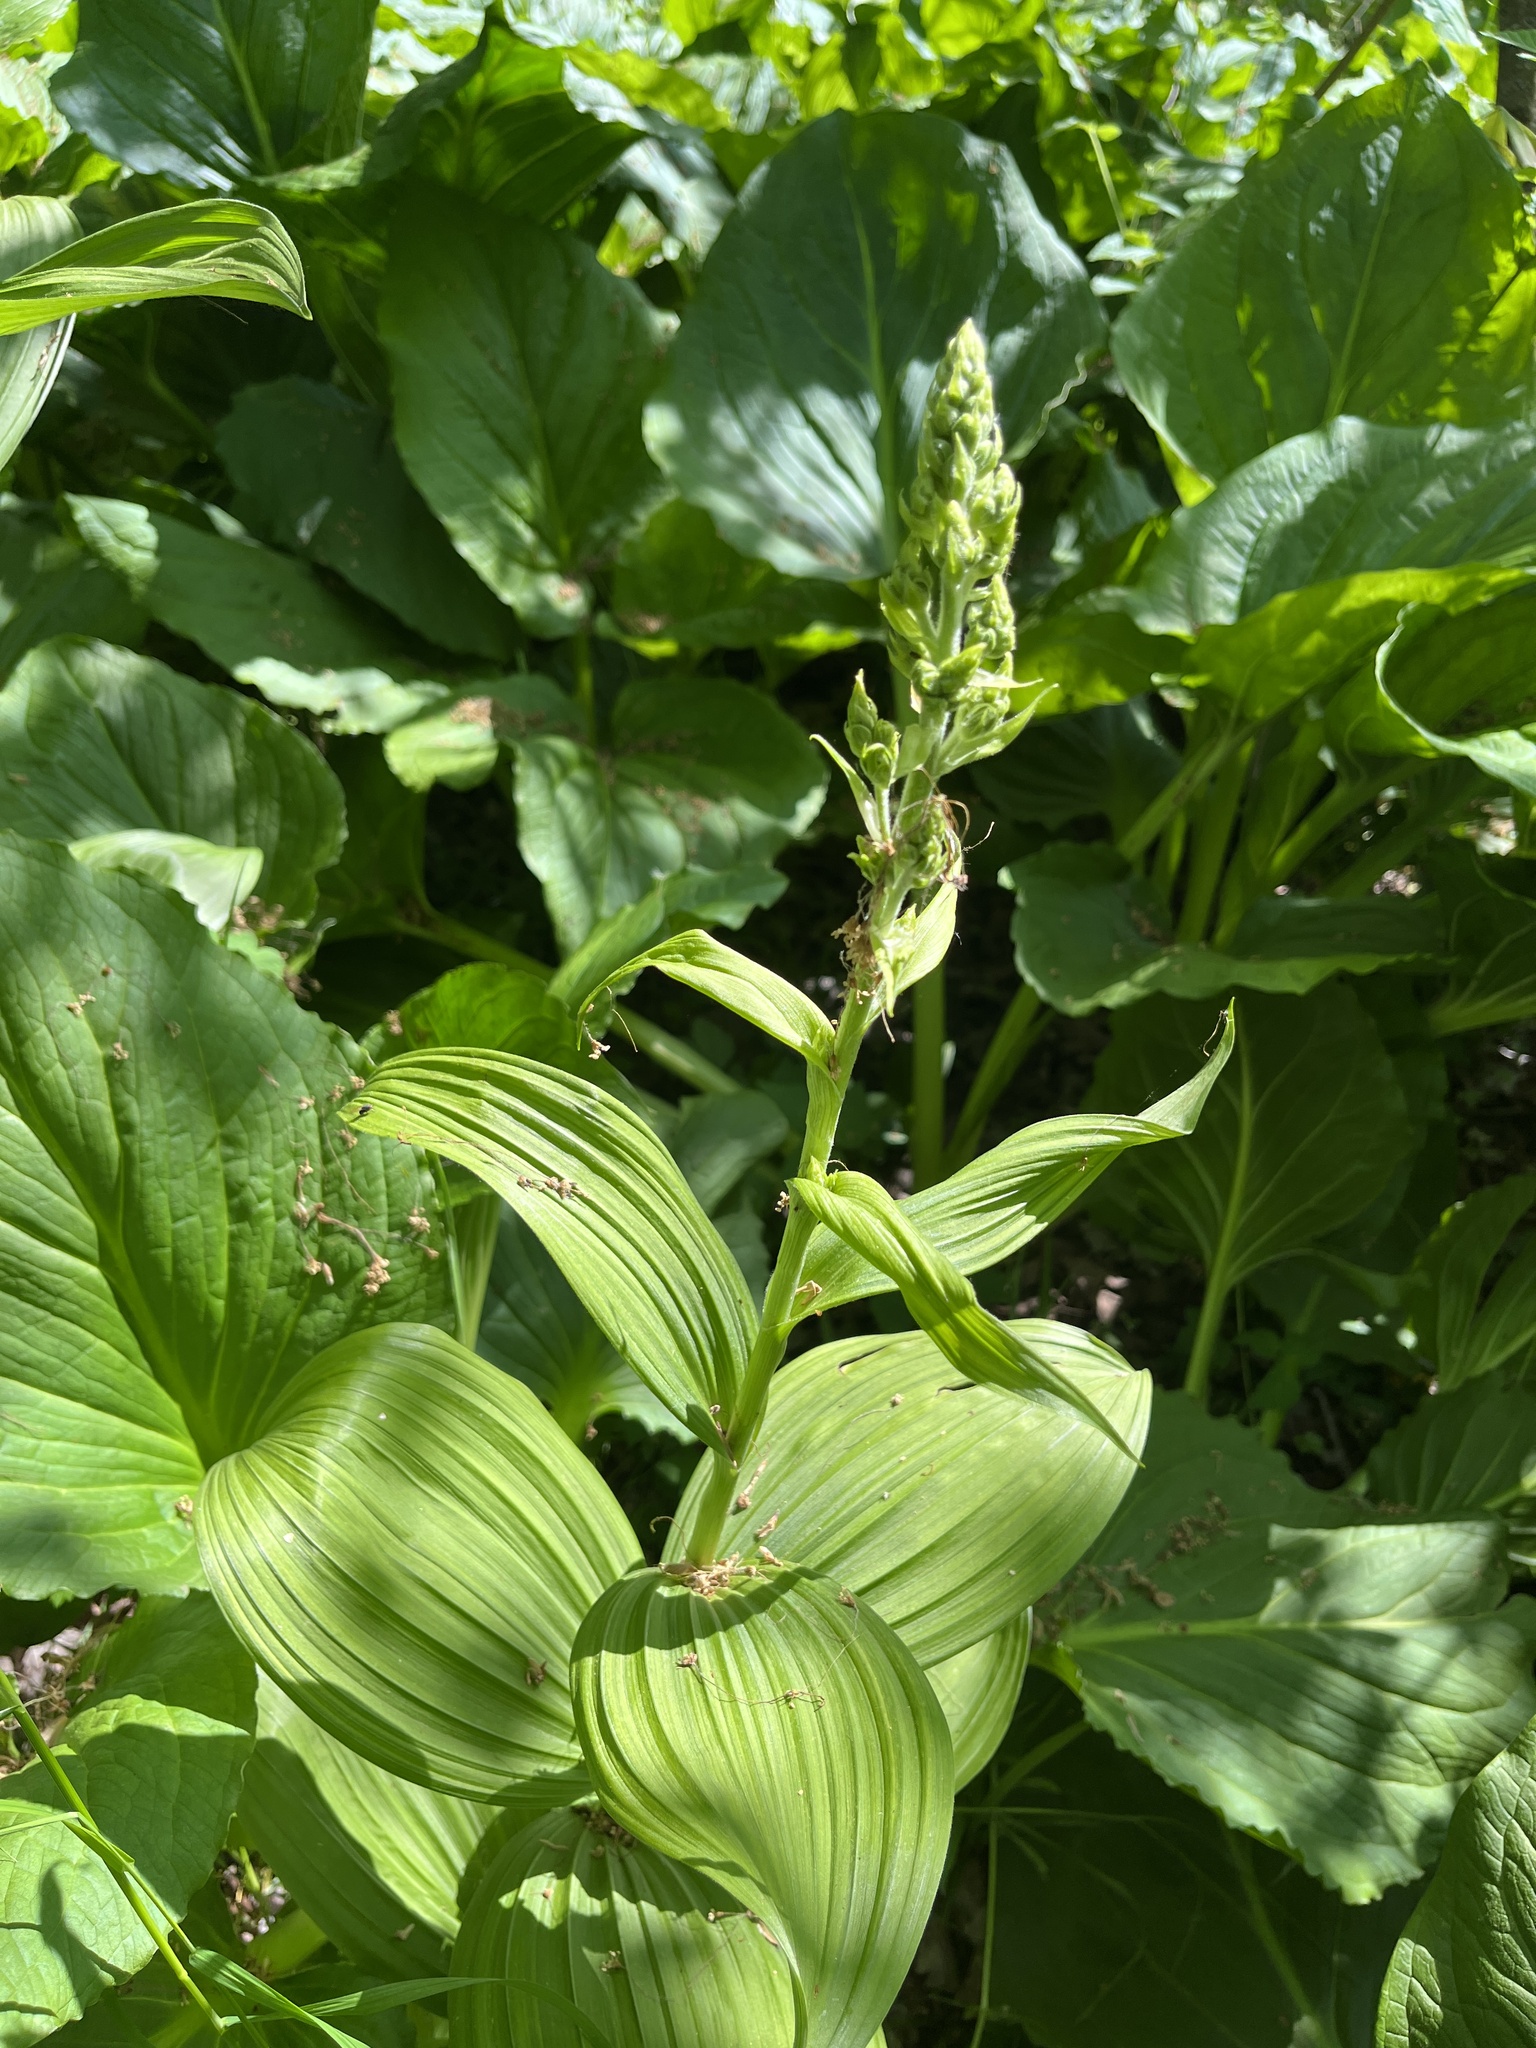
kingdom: Plantae
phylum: Tracheophyta
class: Liliopsida
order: Liliales
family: Melanthiaceae
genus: Veratrum
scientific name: Veratrum viride
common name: American false hellebore
